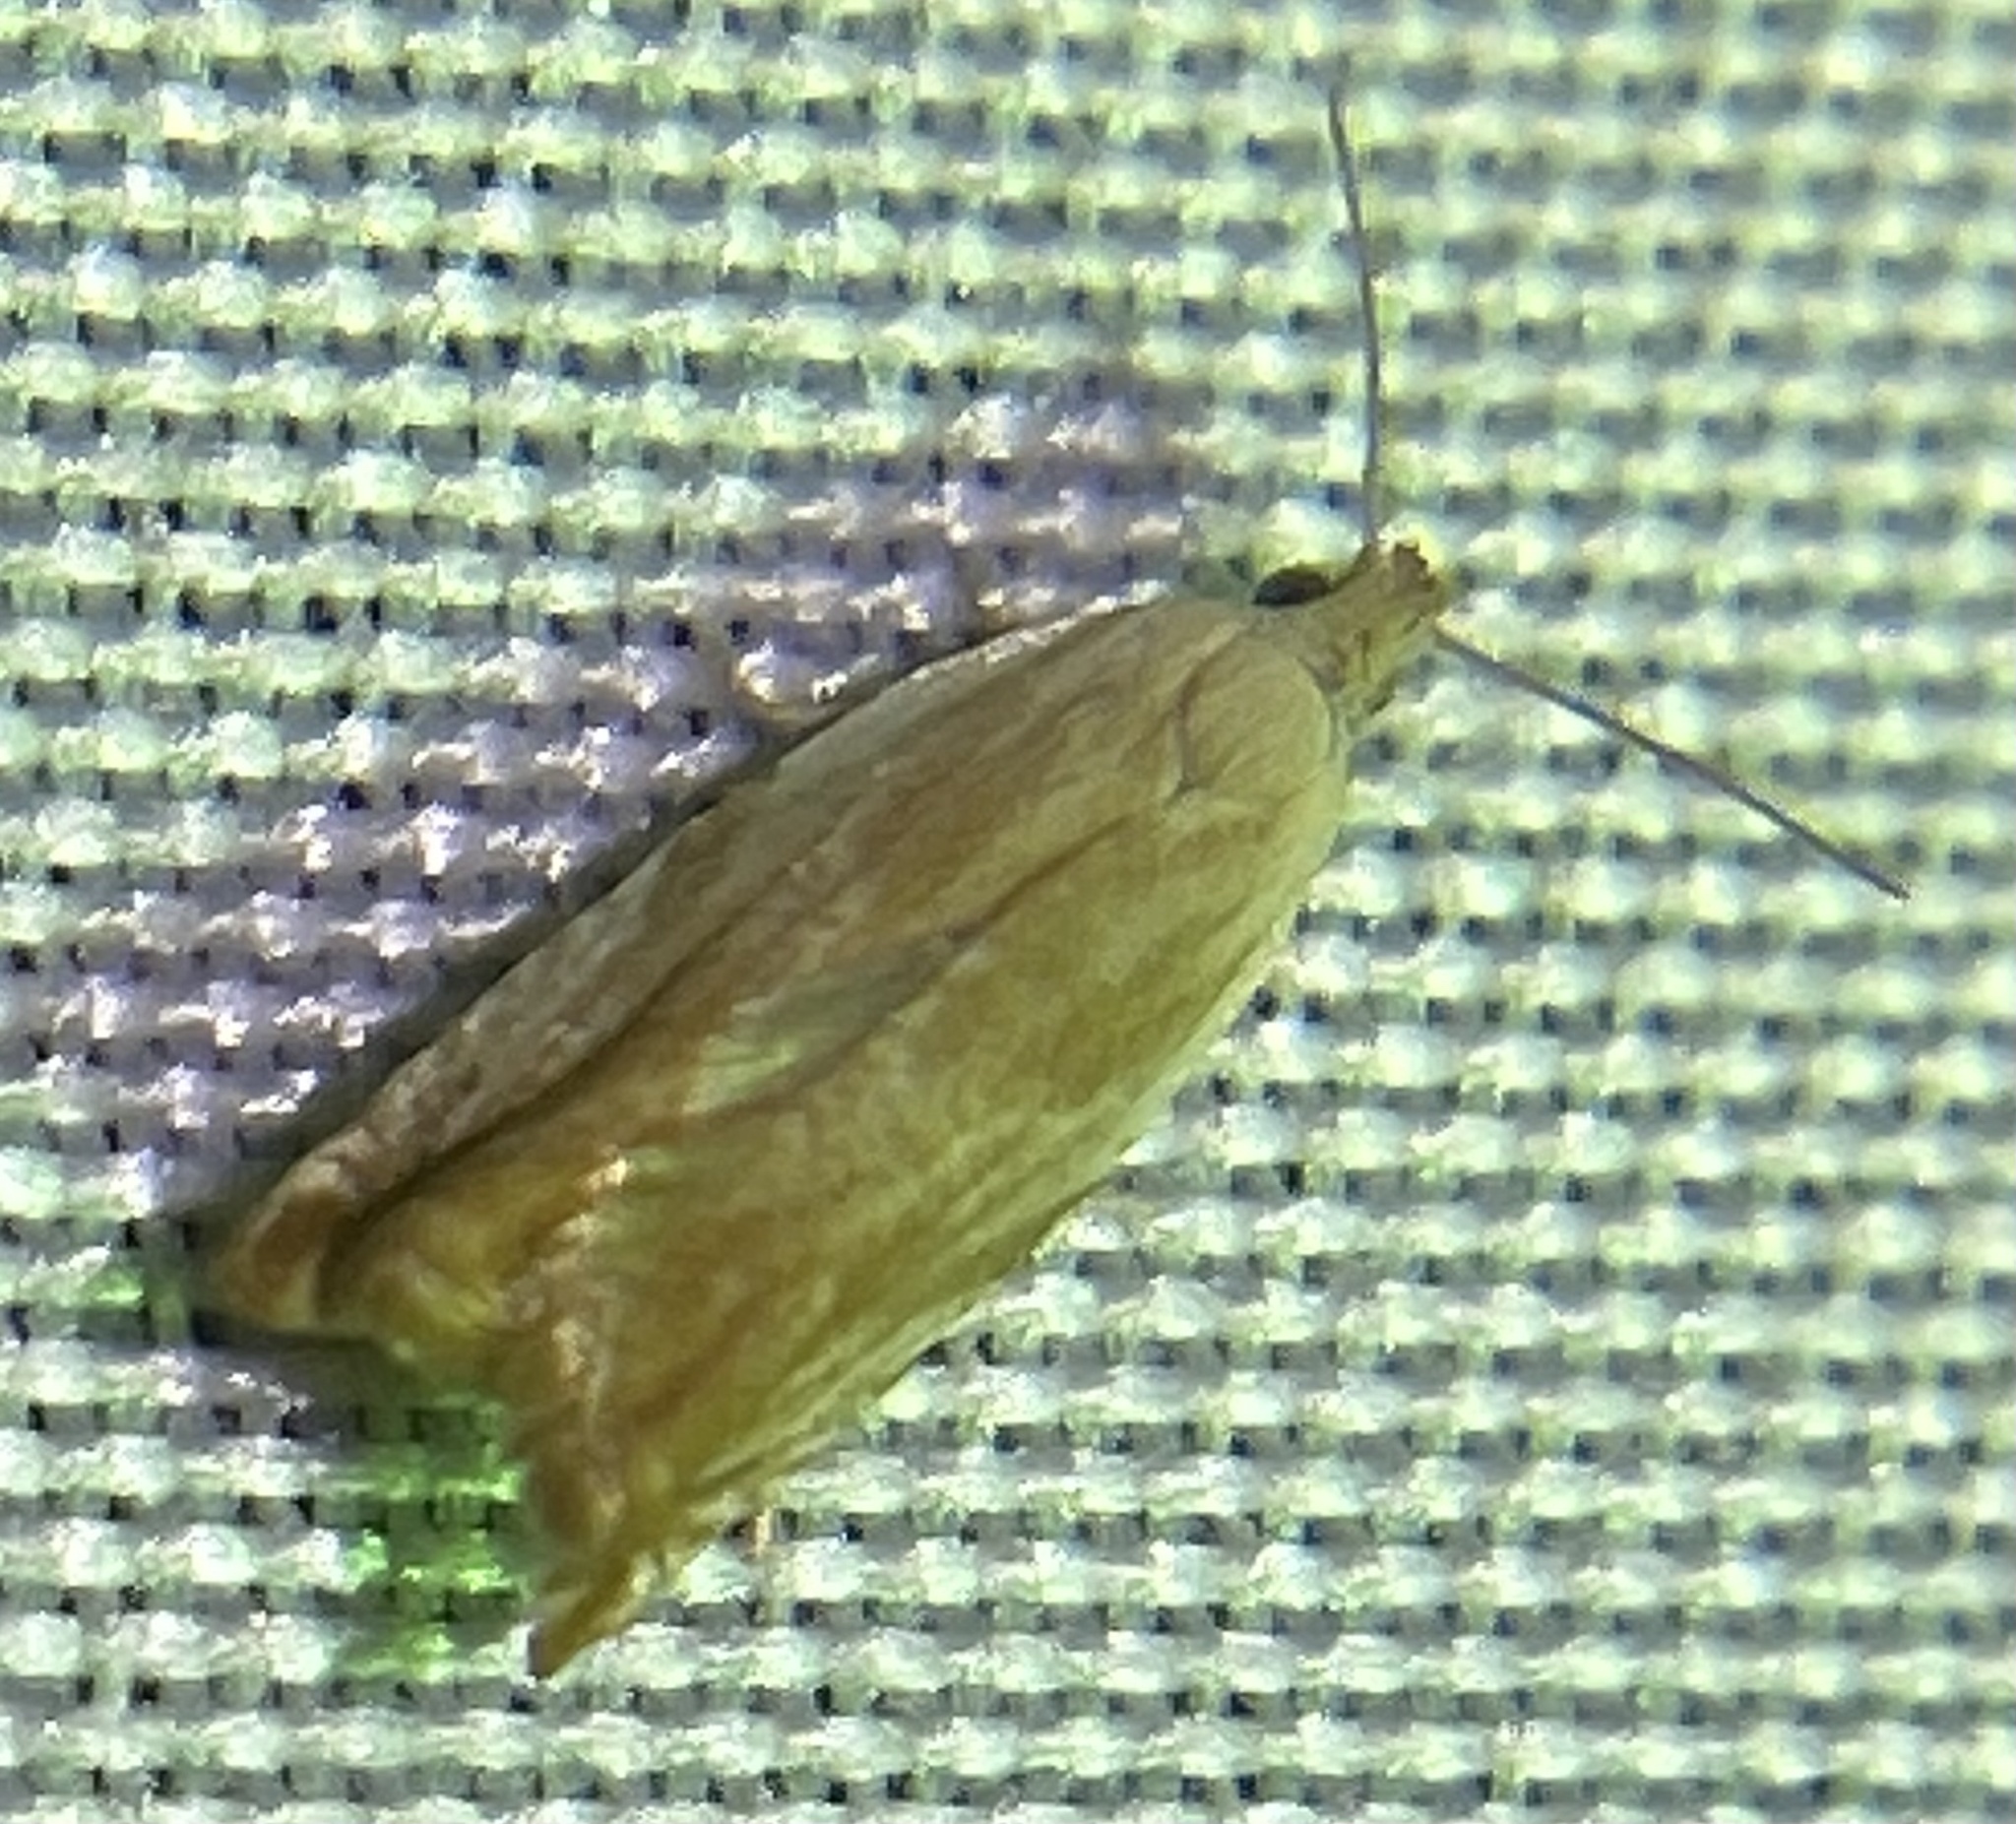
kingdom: Animalia
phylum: Arthropoda
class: Insecta
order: Lepidoptera
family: Tortricidae
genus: Ancylis
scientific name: Ancylis platanana
